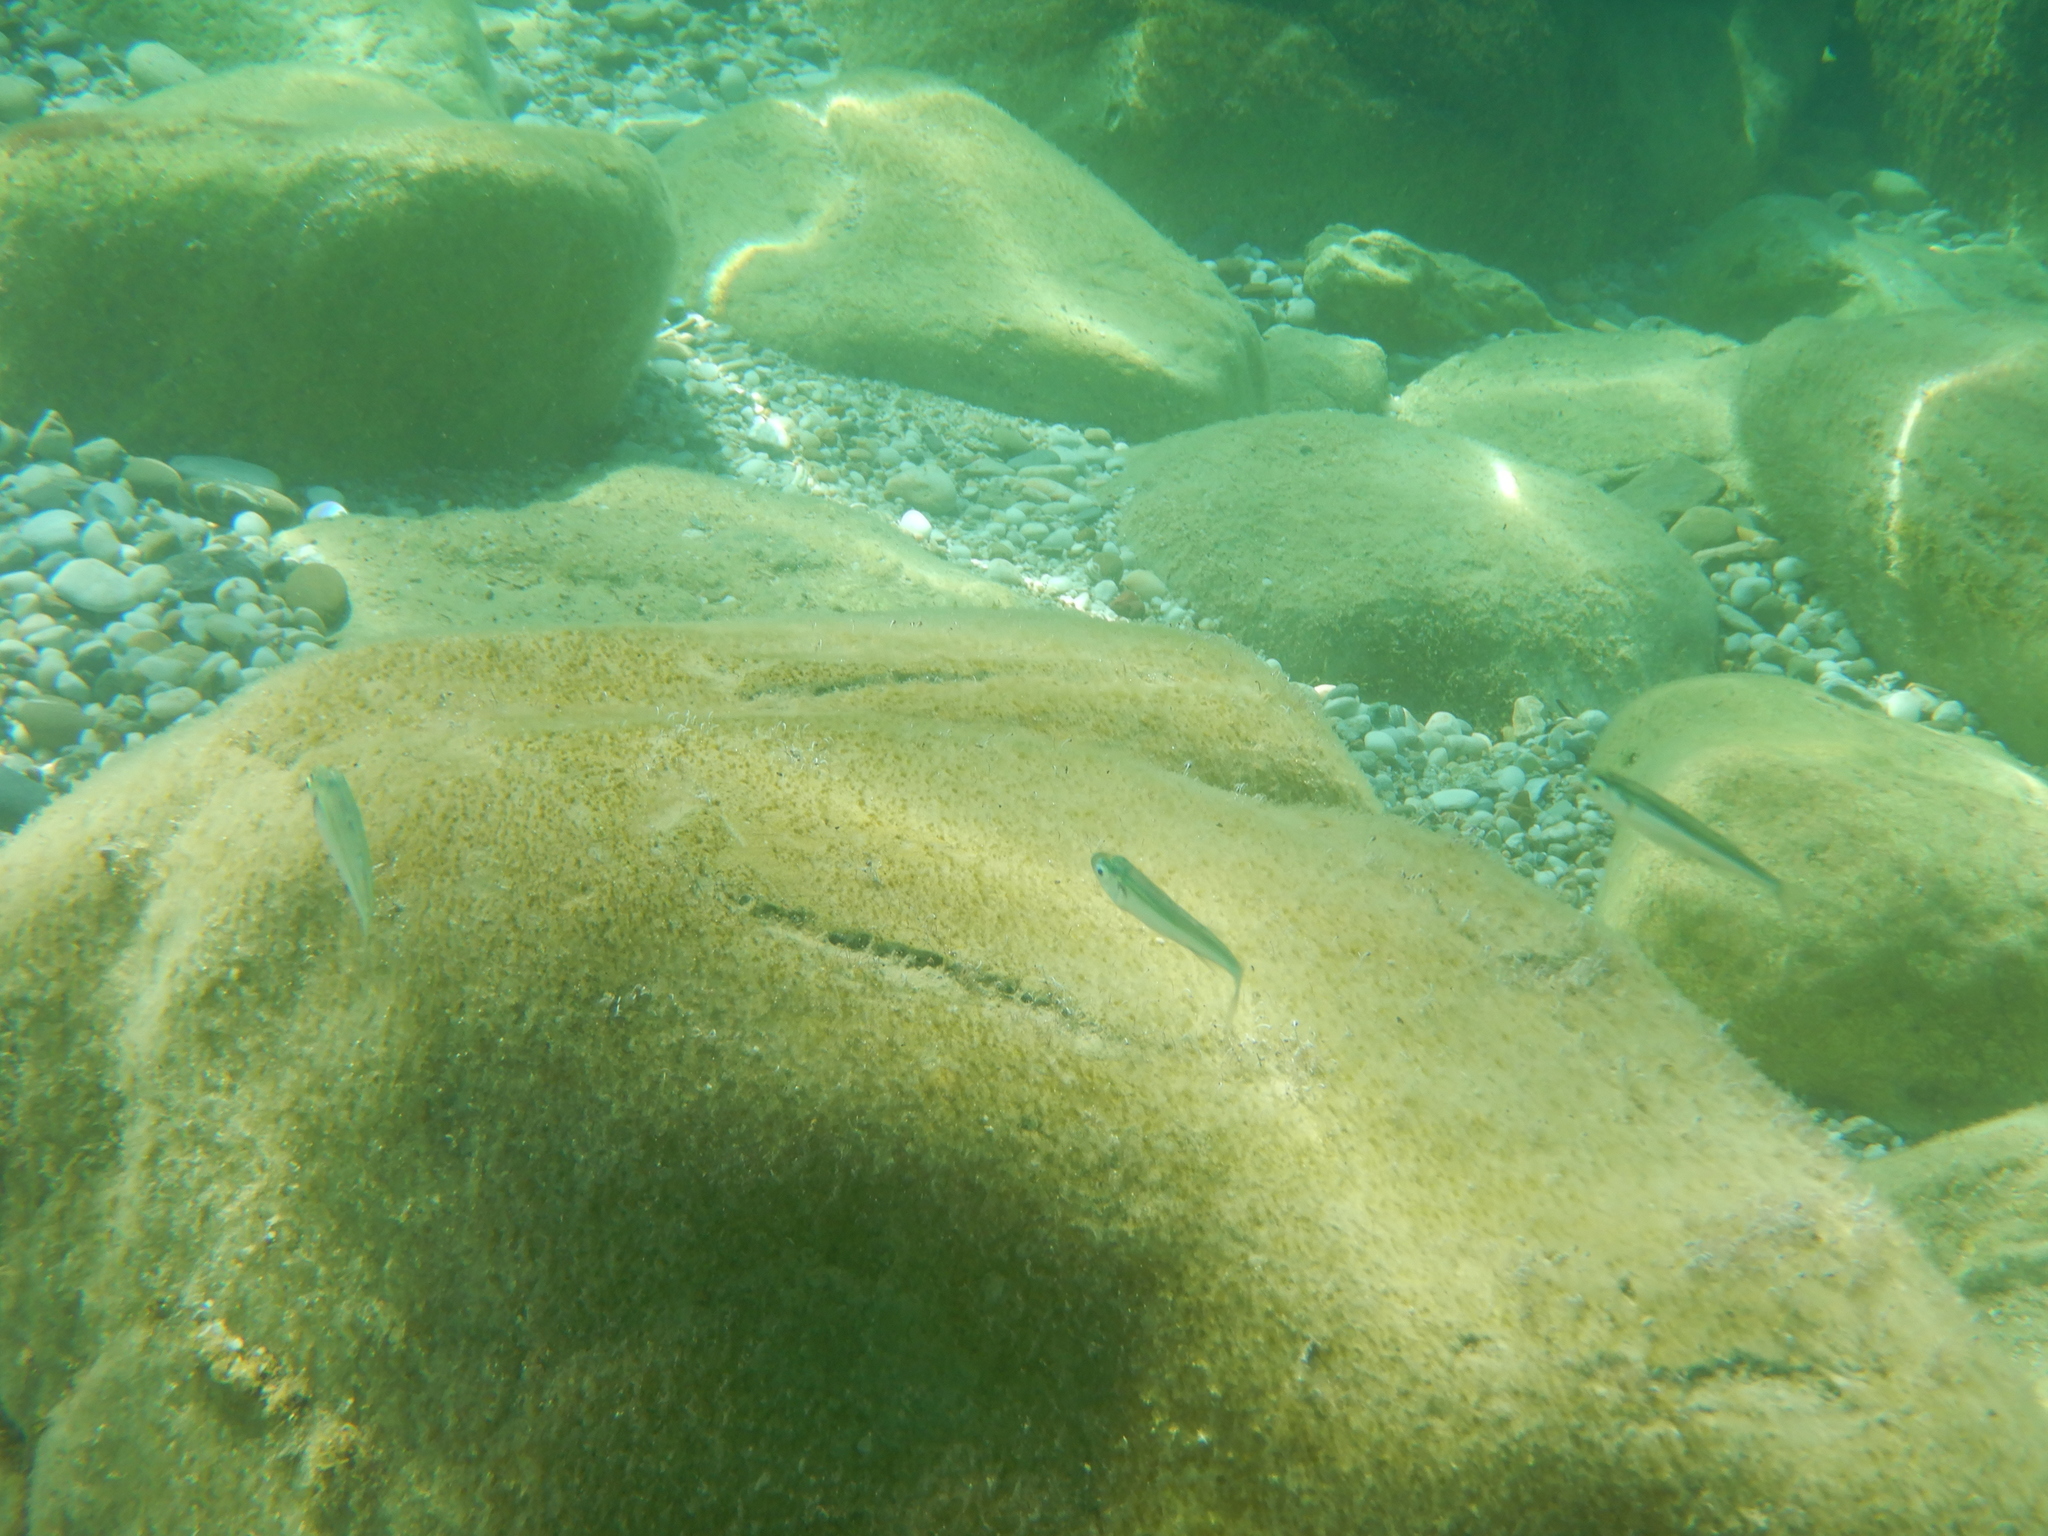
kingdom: Animalia
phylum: Chordata
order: Atheriniformes
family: Atherinidae
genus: Atherina
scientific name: Atherina
